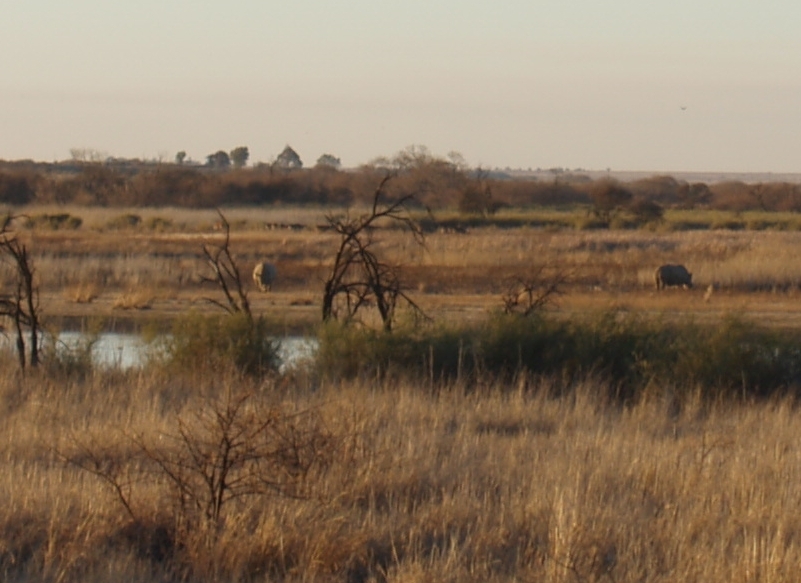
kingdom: Animalia
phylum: Chordata
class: Mammalia
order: Perissodactyla
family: Rhinocerotidae
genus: Ceratotherium
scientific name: Ceratotherium simum
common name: White rhinoceros
